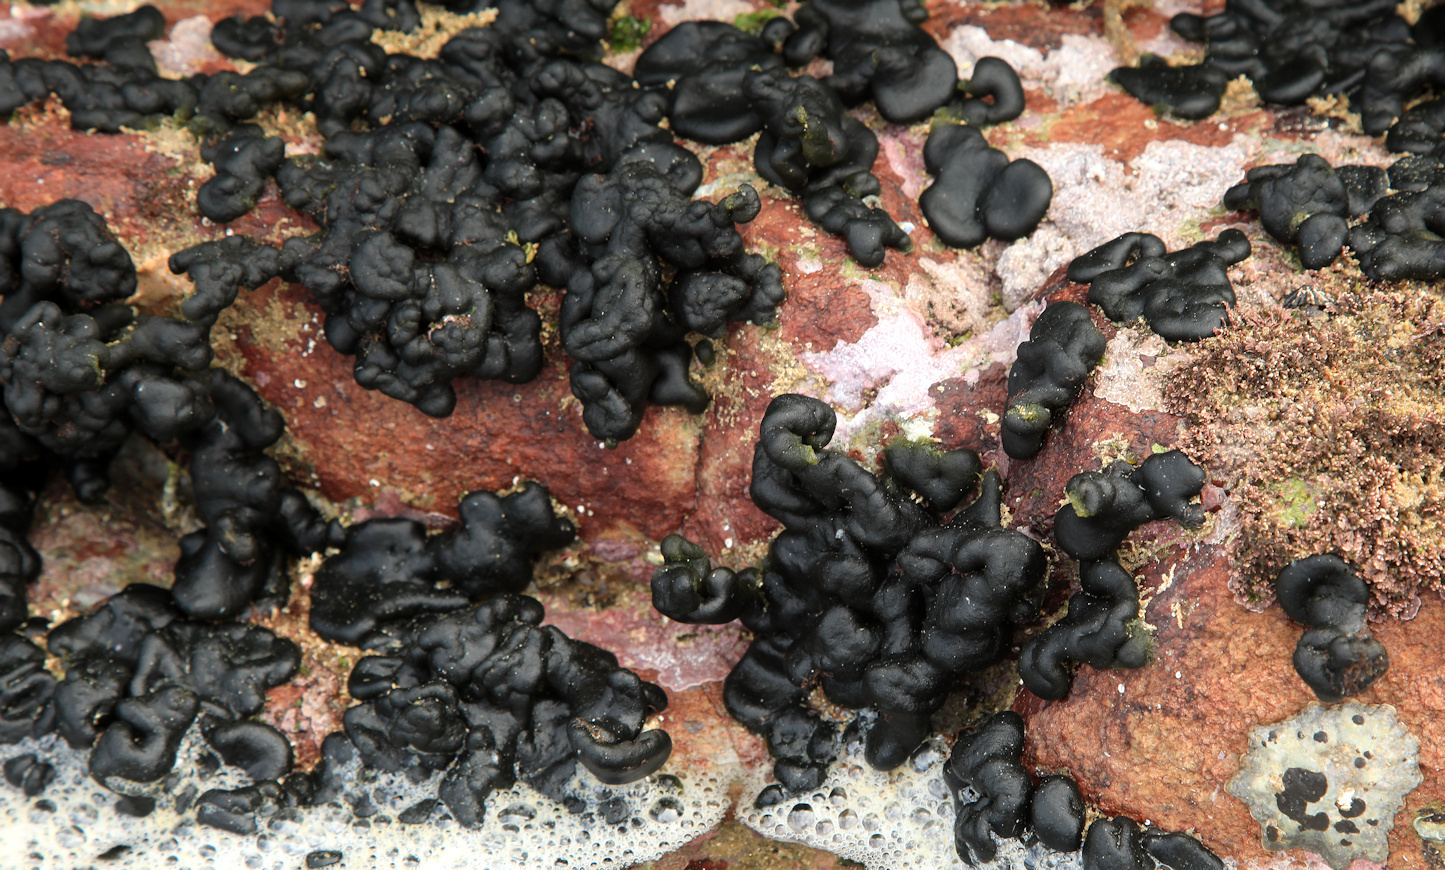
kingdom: Plantae
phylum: Chlorophyta
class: Ulvophyceae
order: Bryopsidales
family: Codiaceae
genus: Codium
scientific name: Codium
